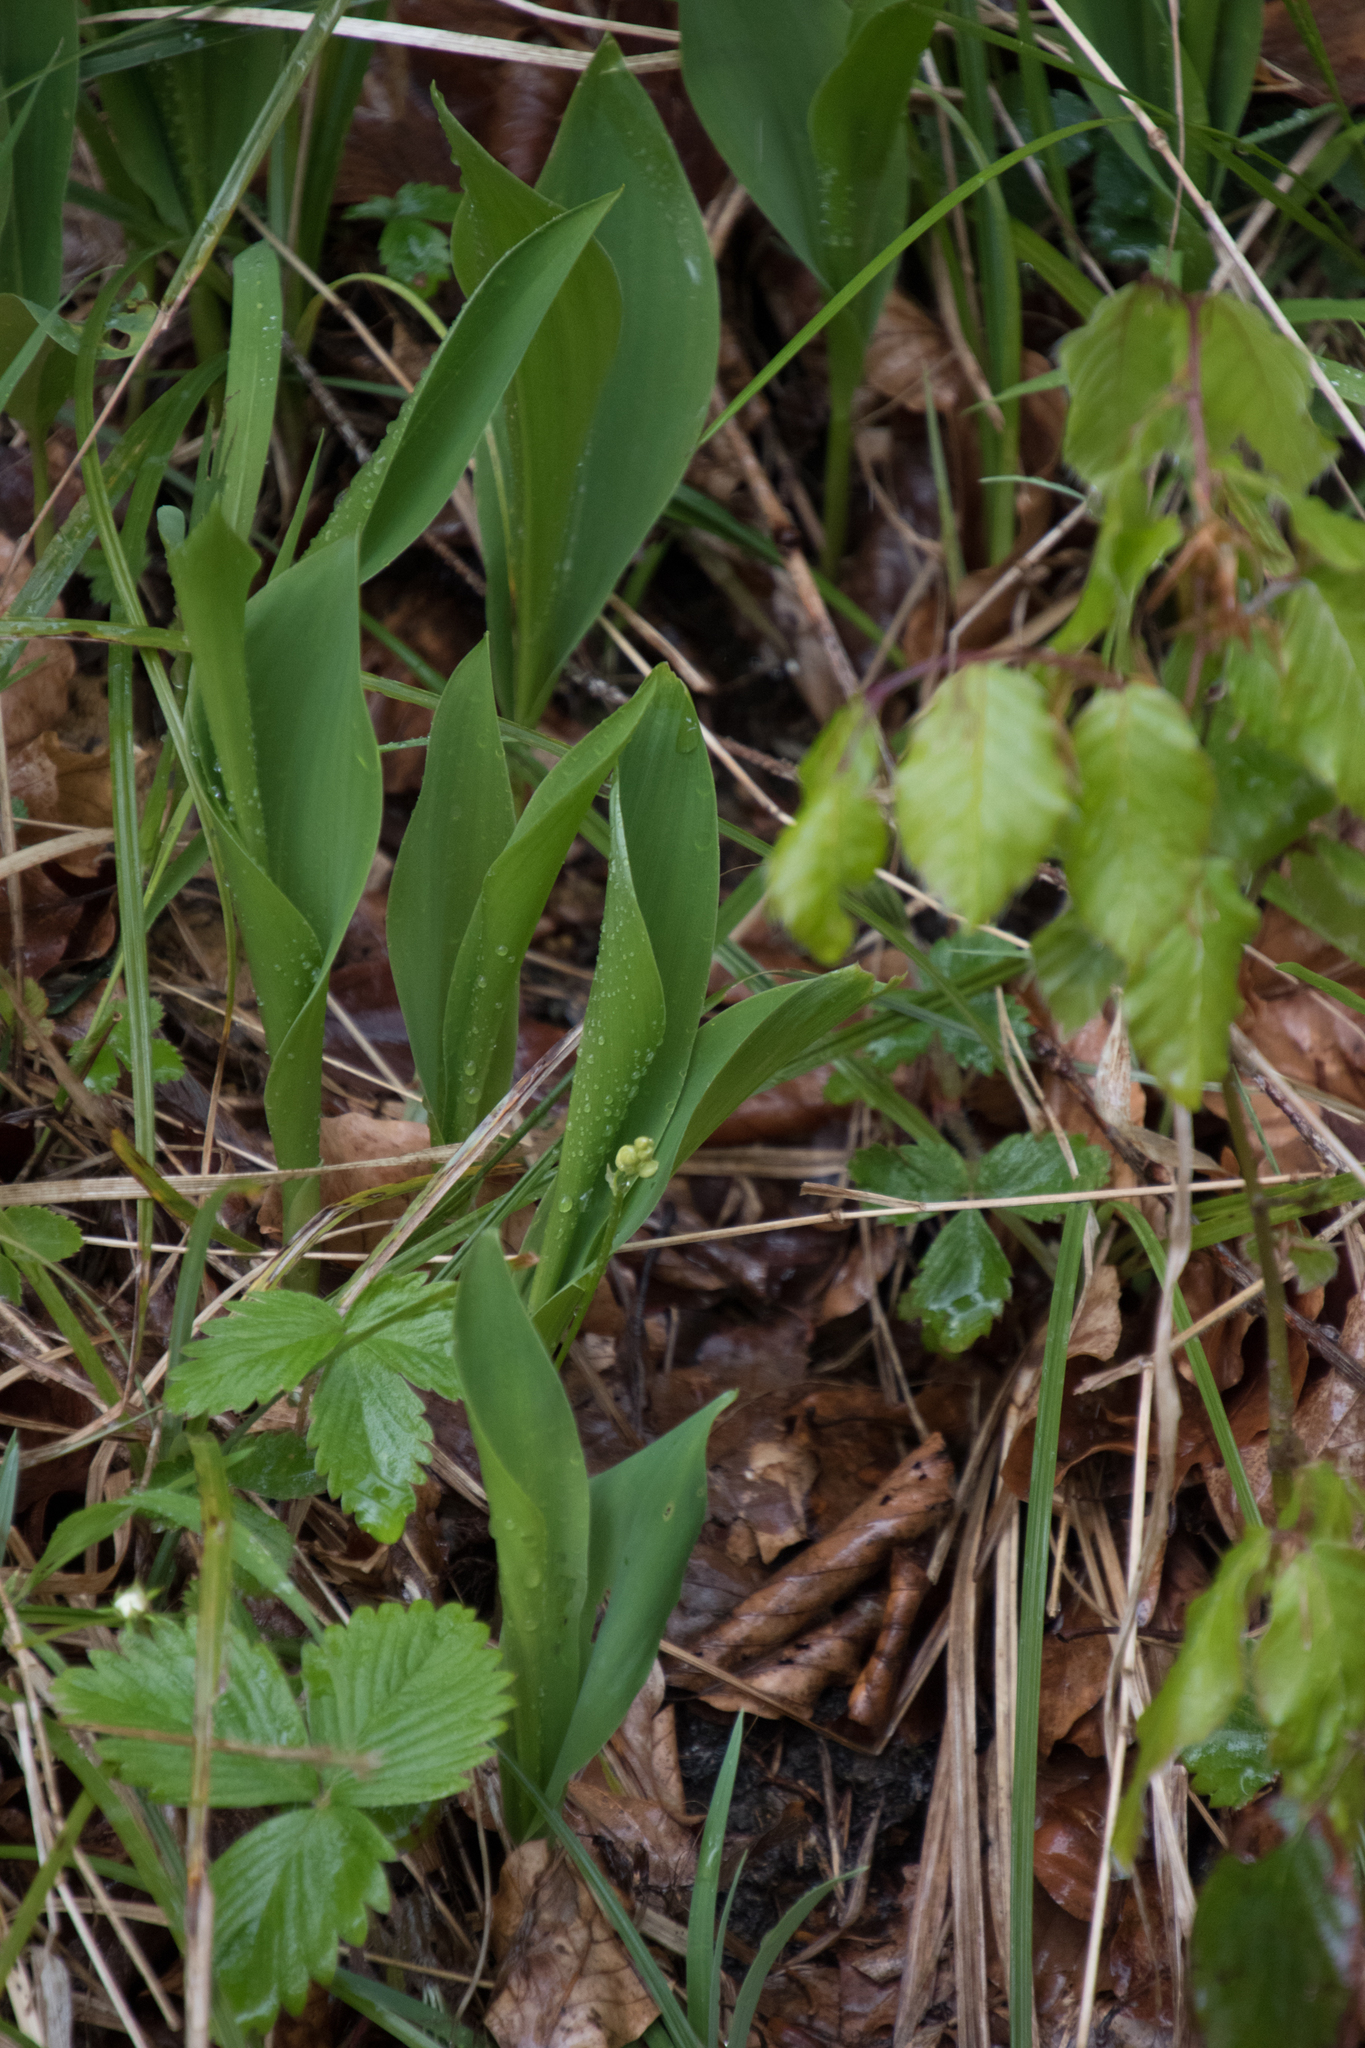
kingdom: Plantae
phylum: Tracheophyta
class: Liliopsida
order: Asparagales
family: Asparagaceae
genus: Convallaria
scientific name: Convallaria majalis
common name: Lily-of-the-valley
